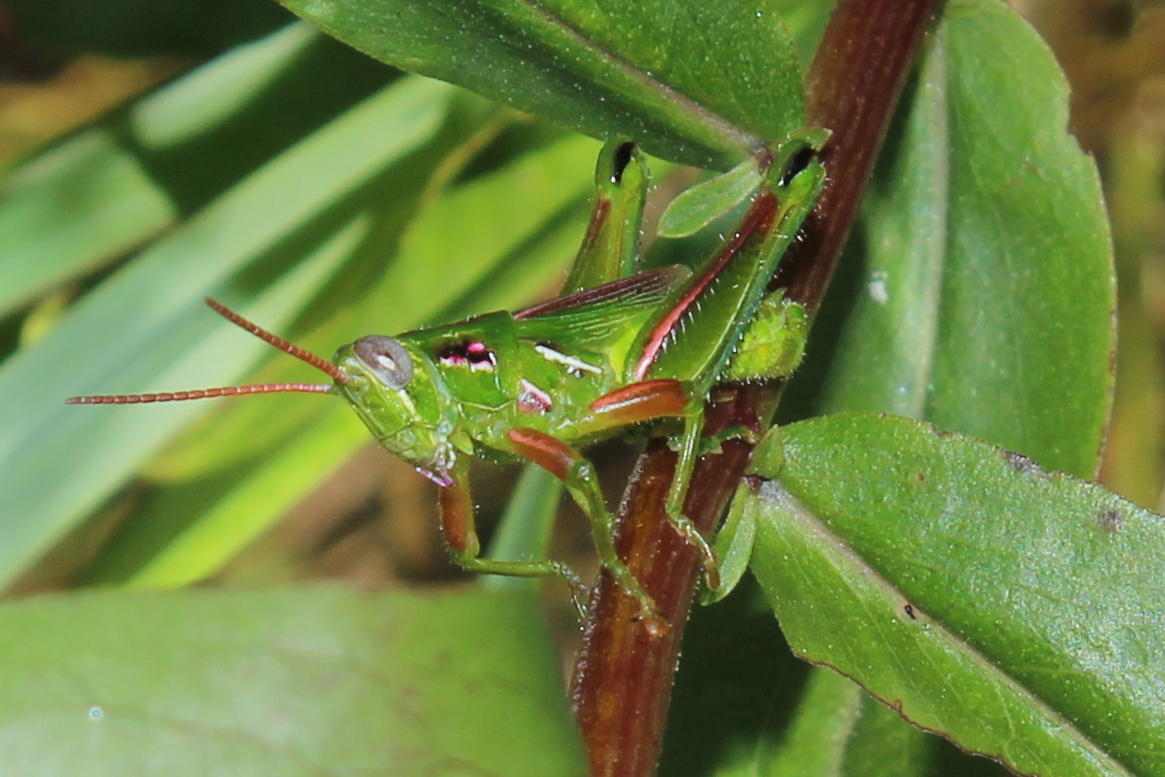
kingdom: Animalia
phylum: Arthropoda
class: Insecta
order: Orthoptera
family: Acrididae
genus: Hesperotettix
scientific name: Hesperotettix viridis
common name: Meadow purple-striped grasshopper
